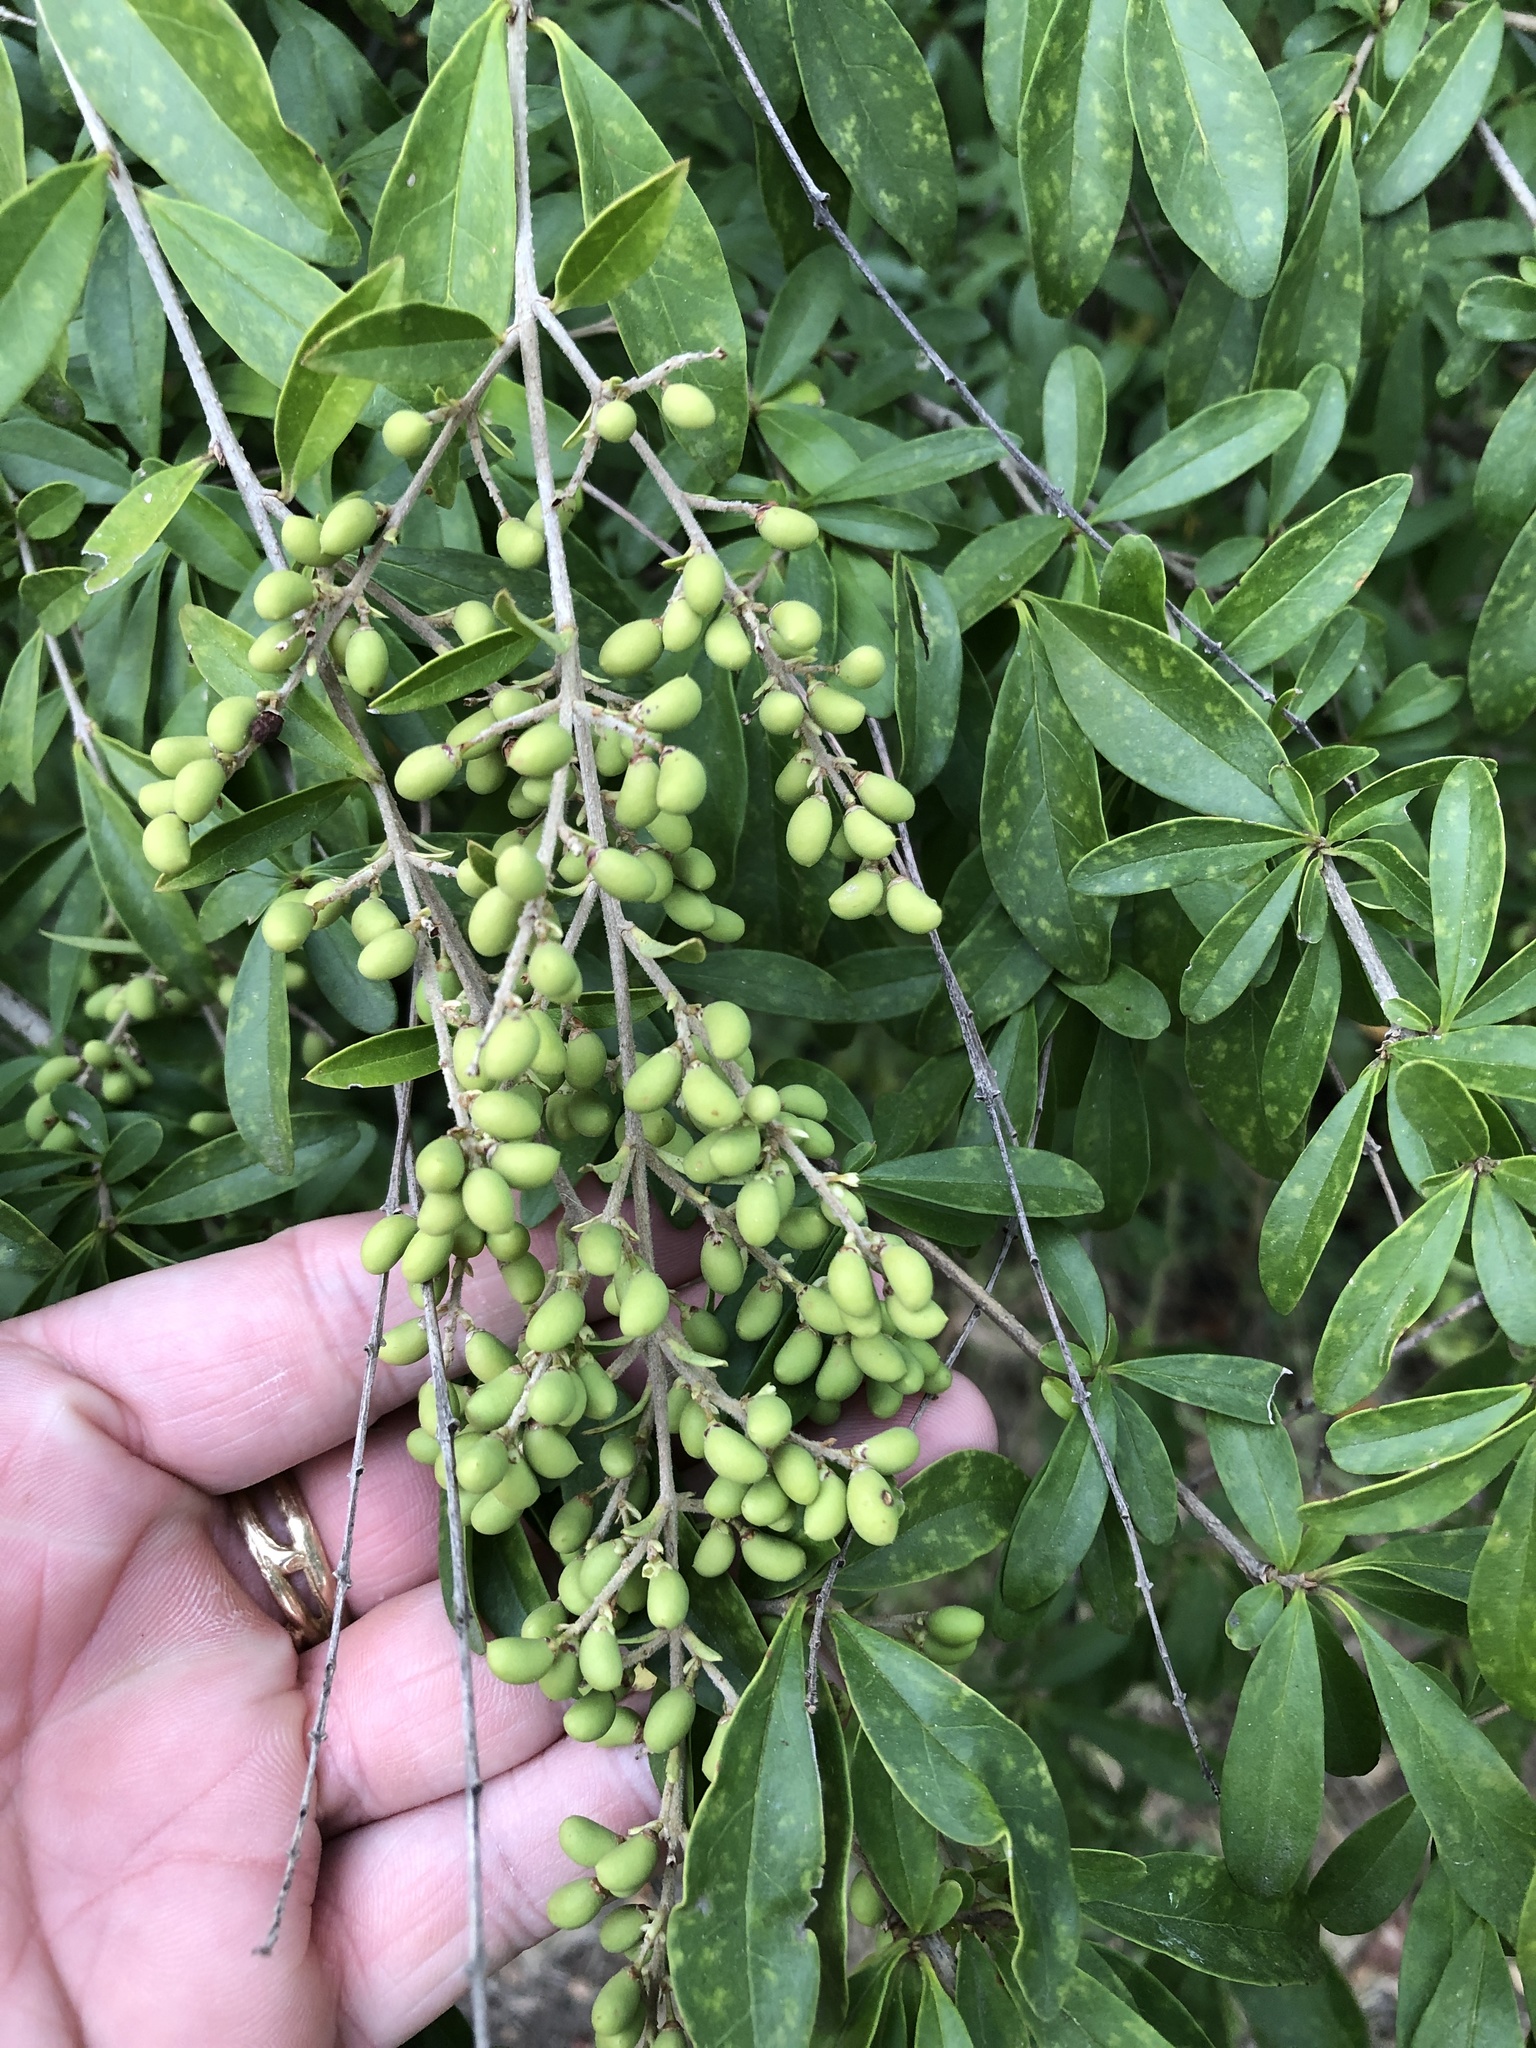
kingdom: Plantae
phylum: Tracheophyta
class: Magnoliopsida
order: Lamiales
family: Oleaceae
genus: Ligustrum
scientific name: Ligustrum quihoui
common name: Waxyleaf privet
